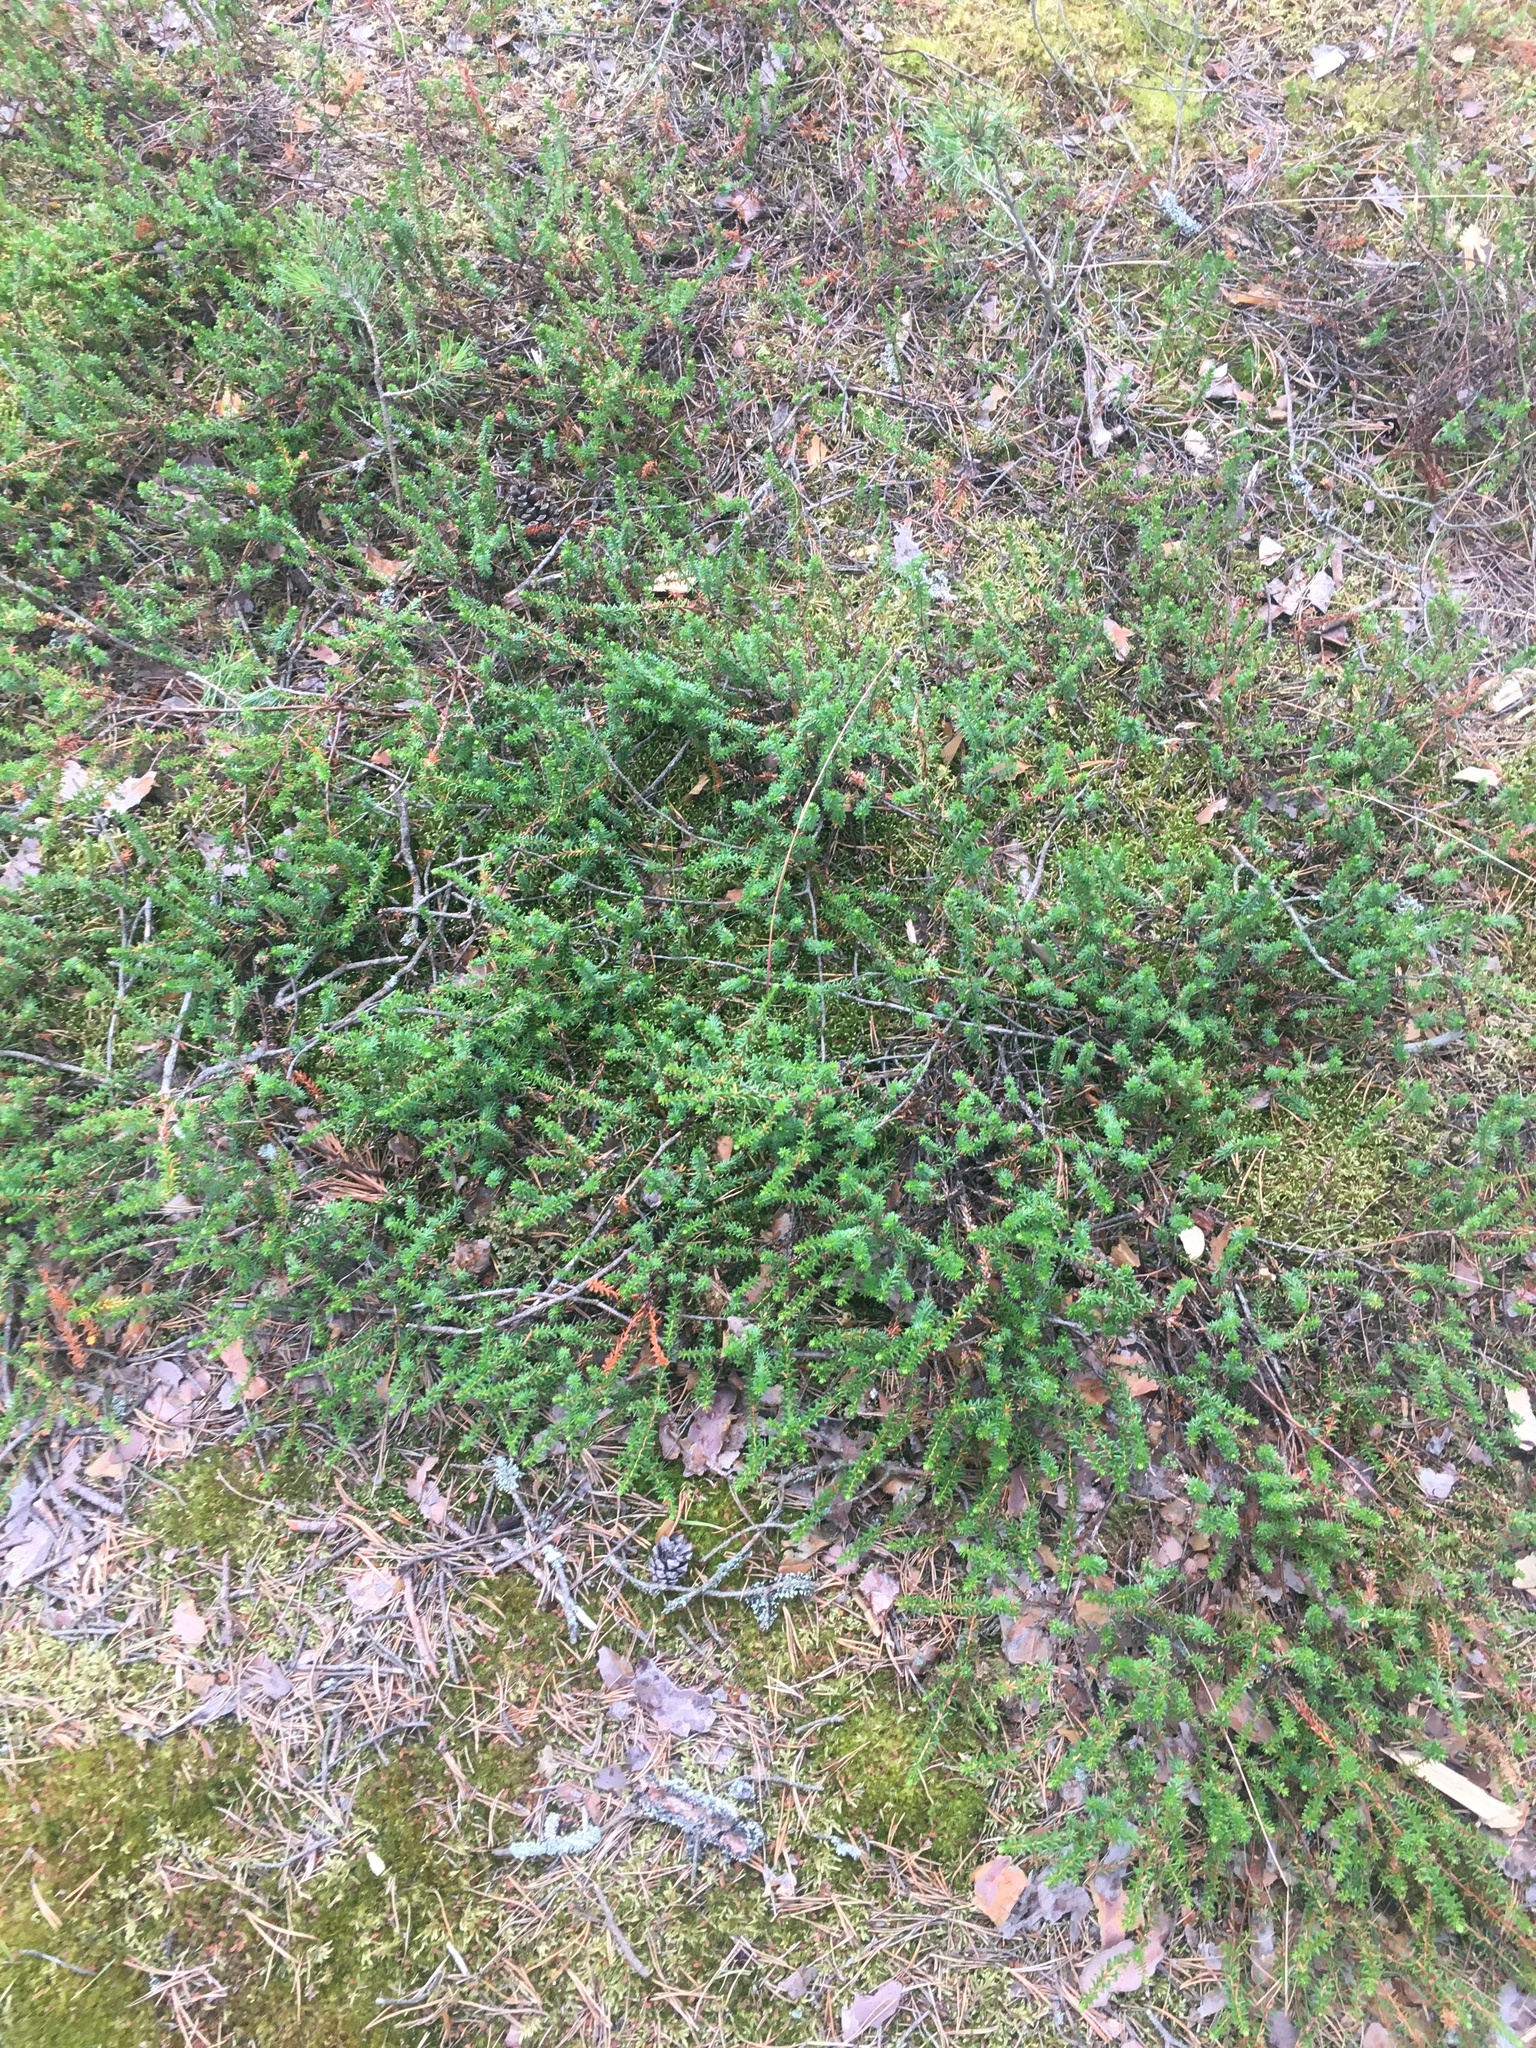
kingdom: Plantae
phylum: Tracheophyta
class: Magnoliopsida
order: Ericales
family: Ericaceae
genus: Empetrum
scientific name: Empetrum nigrum
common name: Black crowberry
